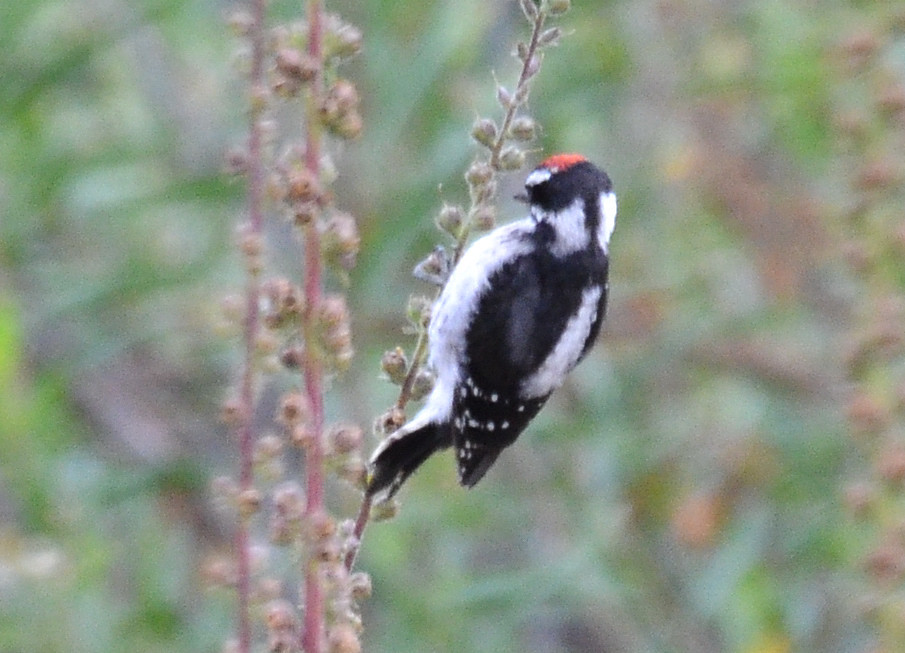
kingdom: Animalia
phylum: Chordata
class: Aves
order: Piciformes
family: Picidae
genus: Dryobates
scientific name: Dryobates pubescens
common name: Downy woodpecker
